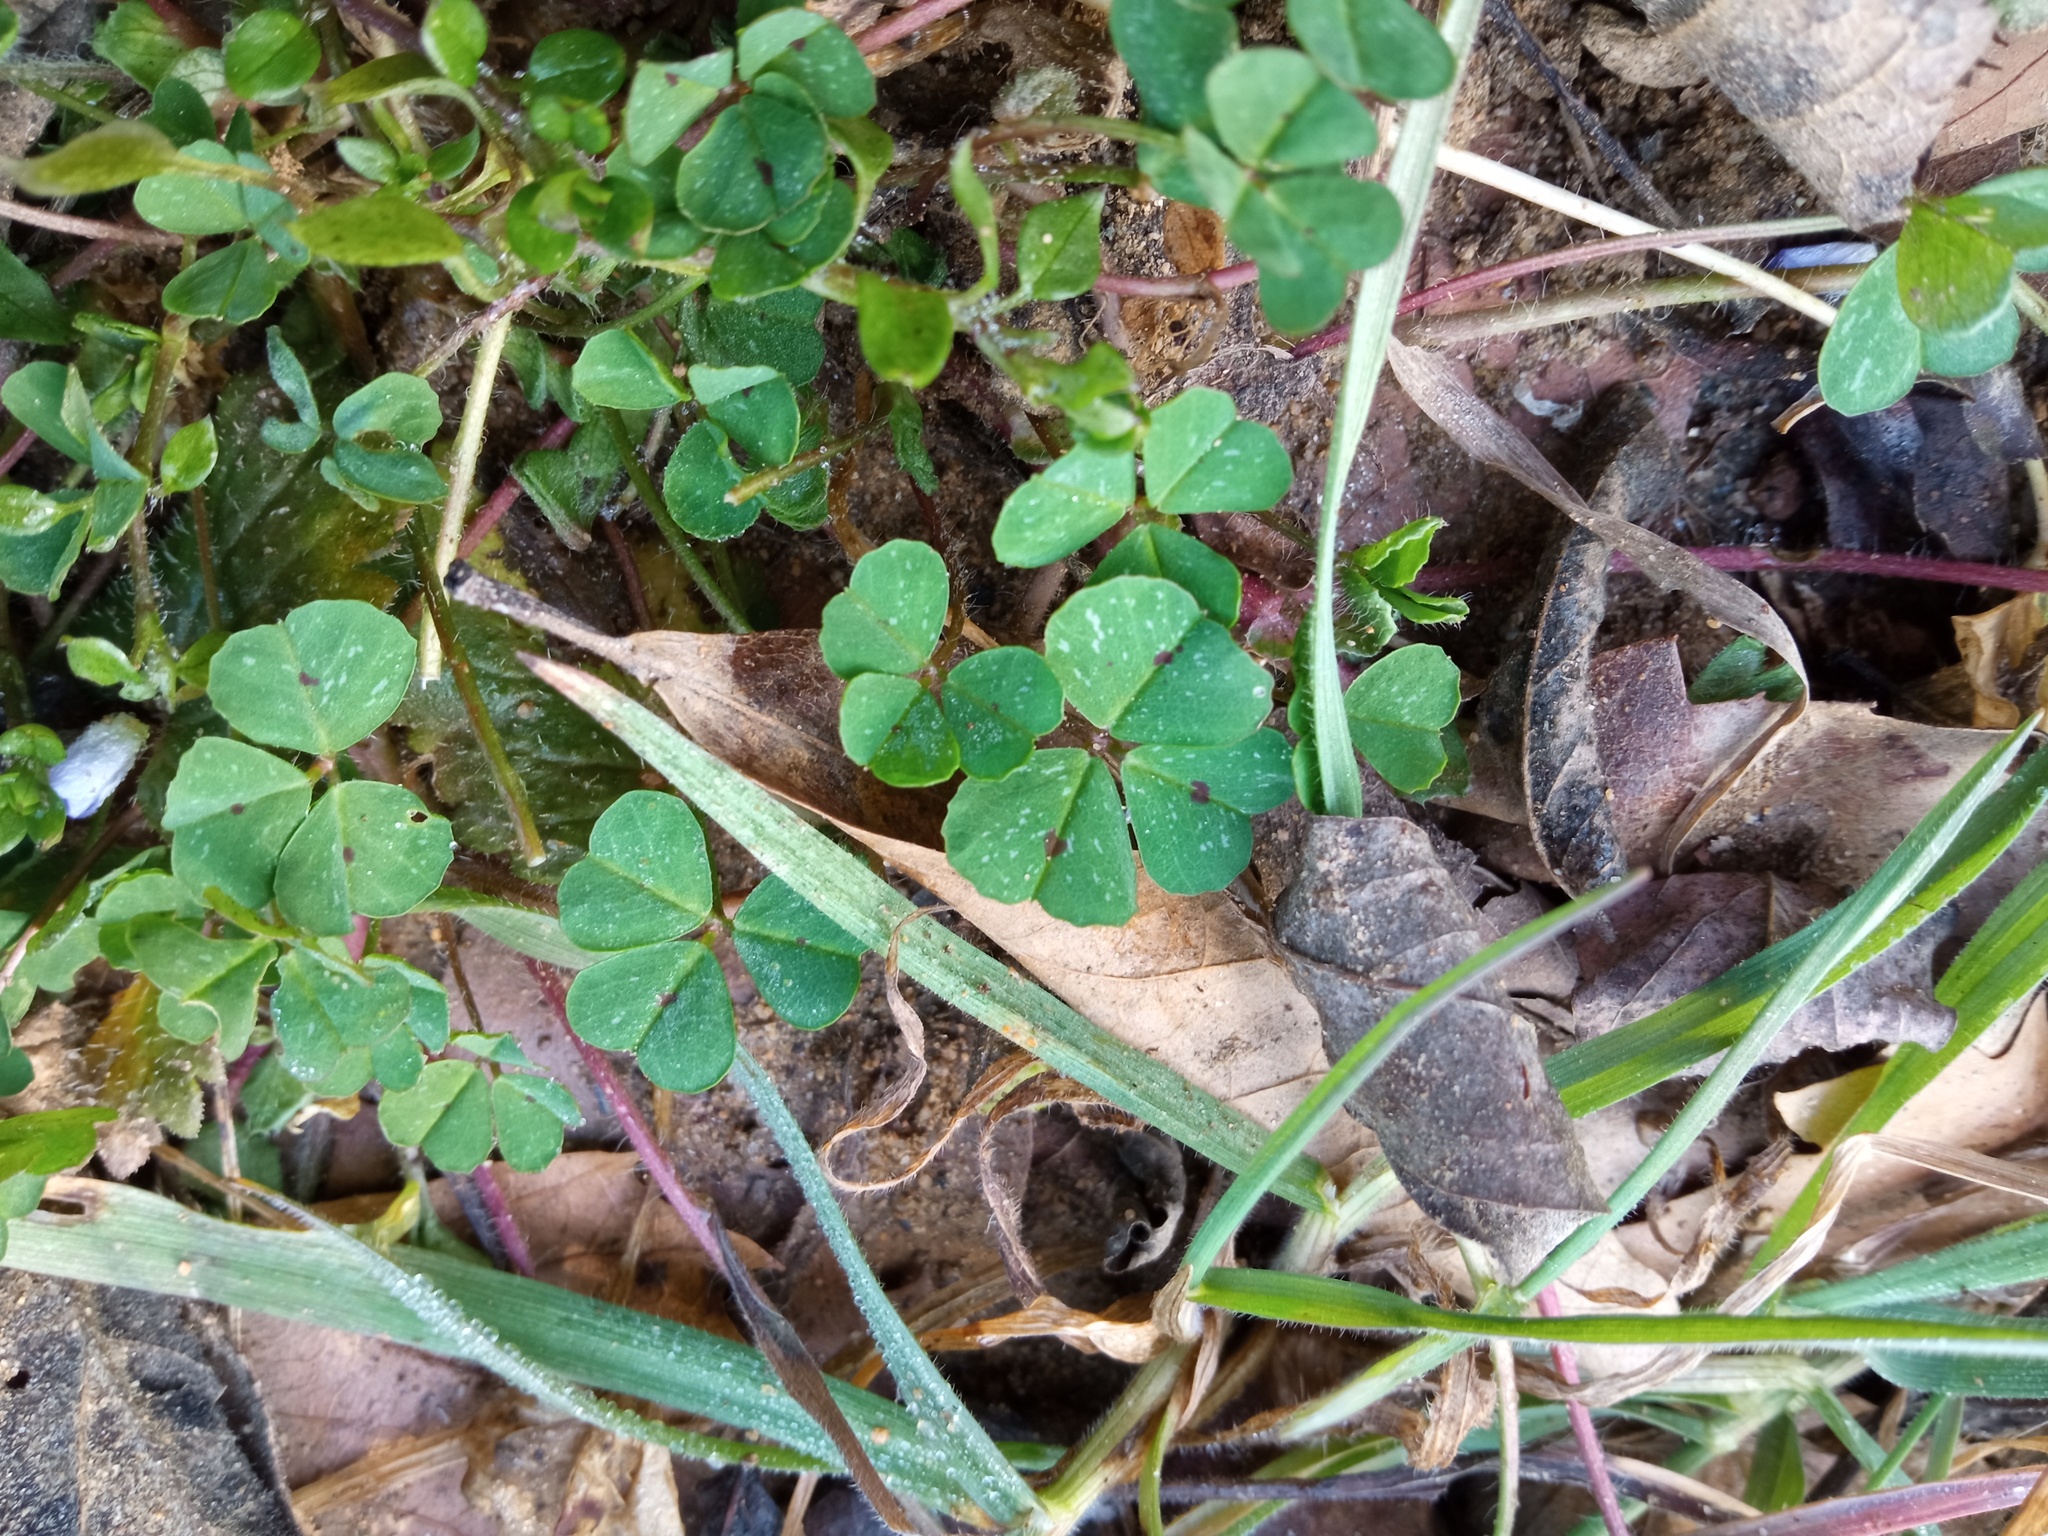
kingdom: Plantae
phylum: Tracheophyta
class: Magnoliopsida
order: Fabales
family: Fabaceae
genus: Medicago
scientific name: Medicago arabica
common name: Spotted medick
